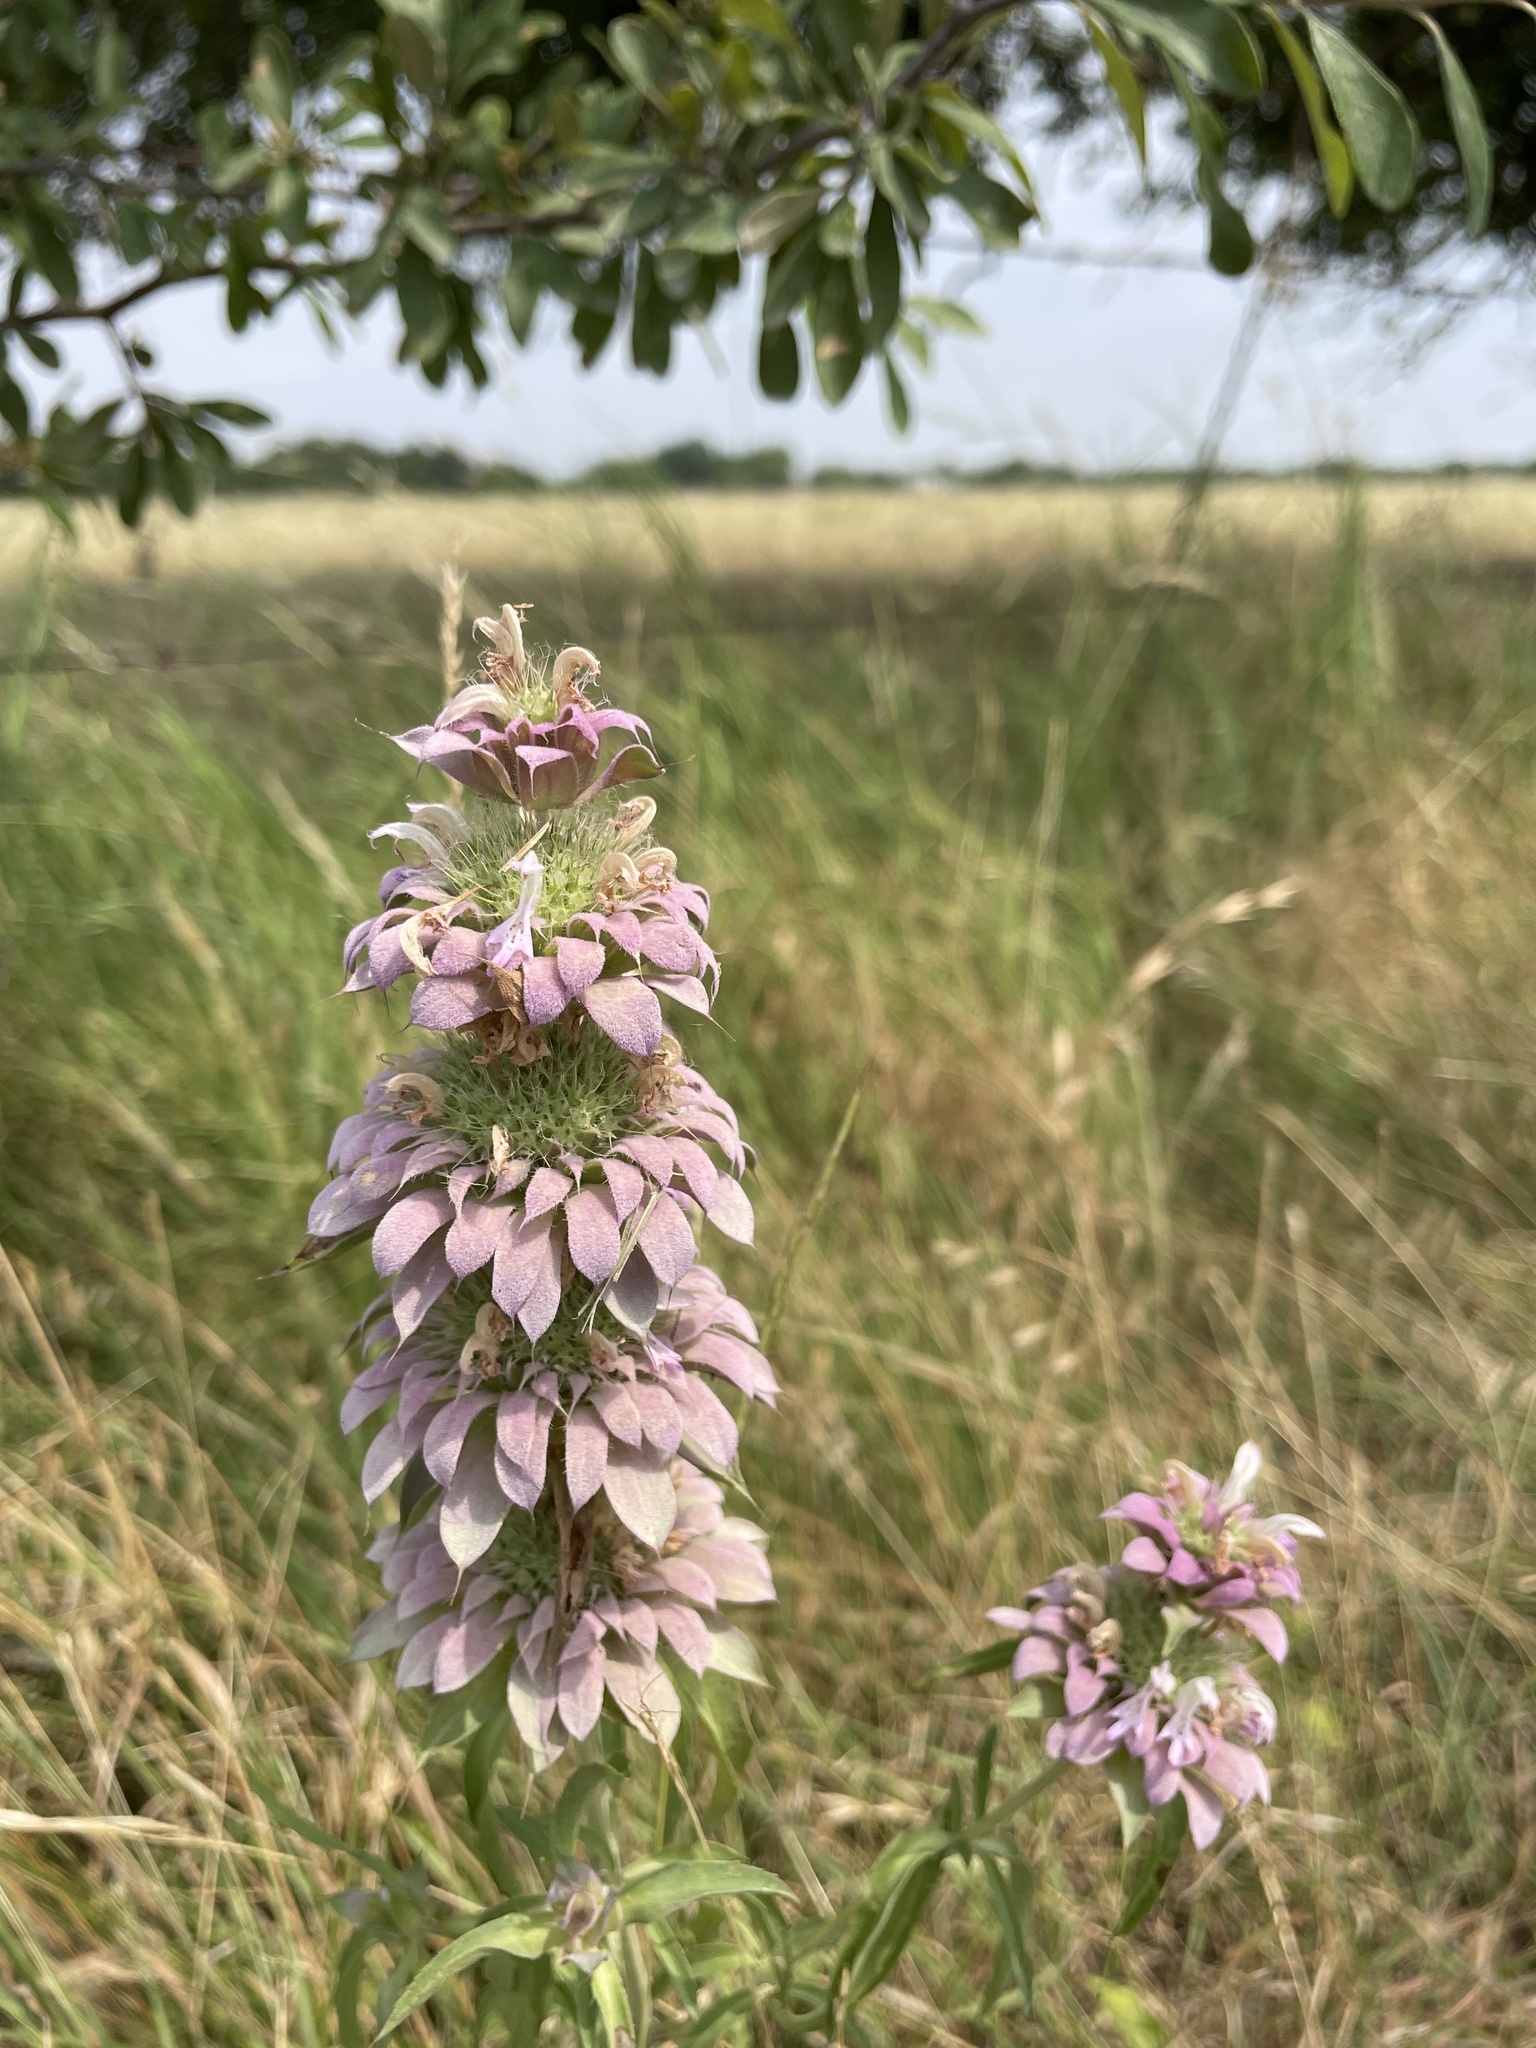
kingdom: Plantae
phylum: Tracheophyta
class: Magnoliopsida
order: Lamiales
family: Lamiaceae
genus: Monarda
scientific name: Monarda citriodora
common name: Lemon beebalm
